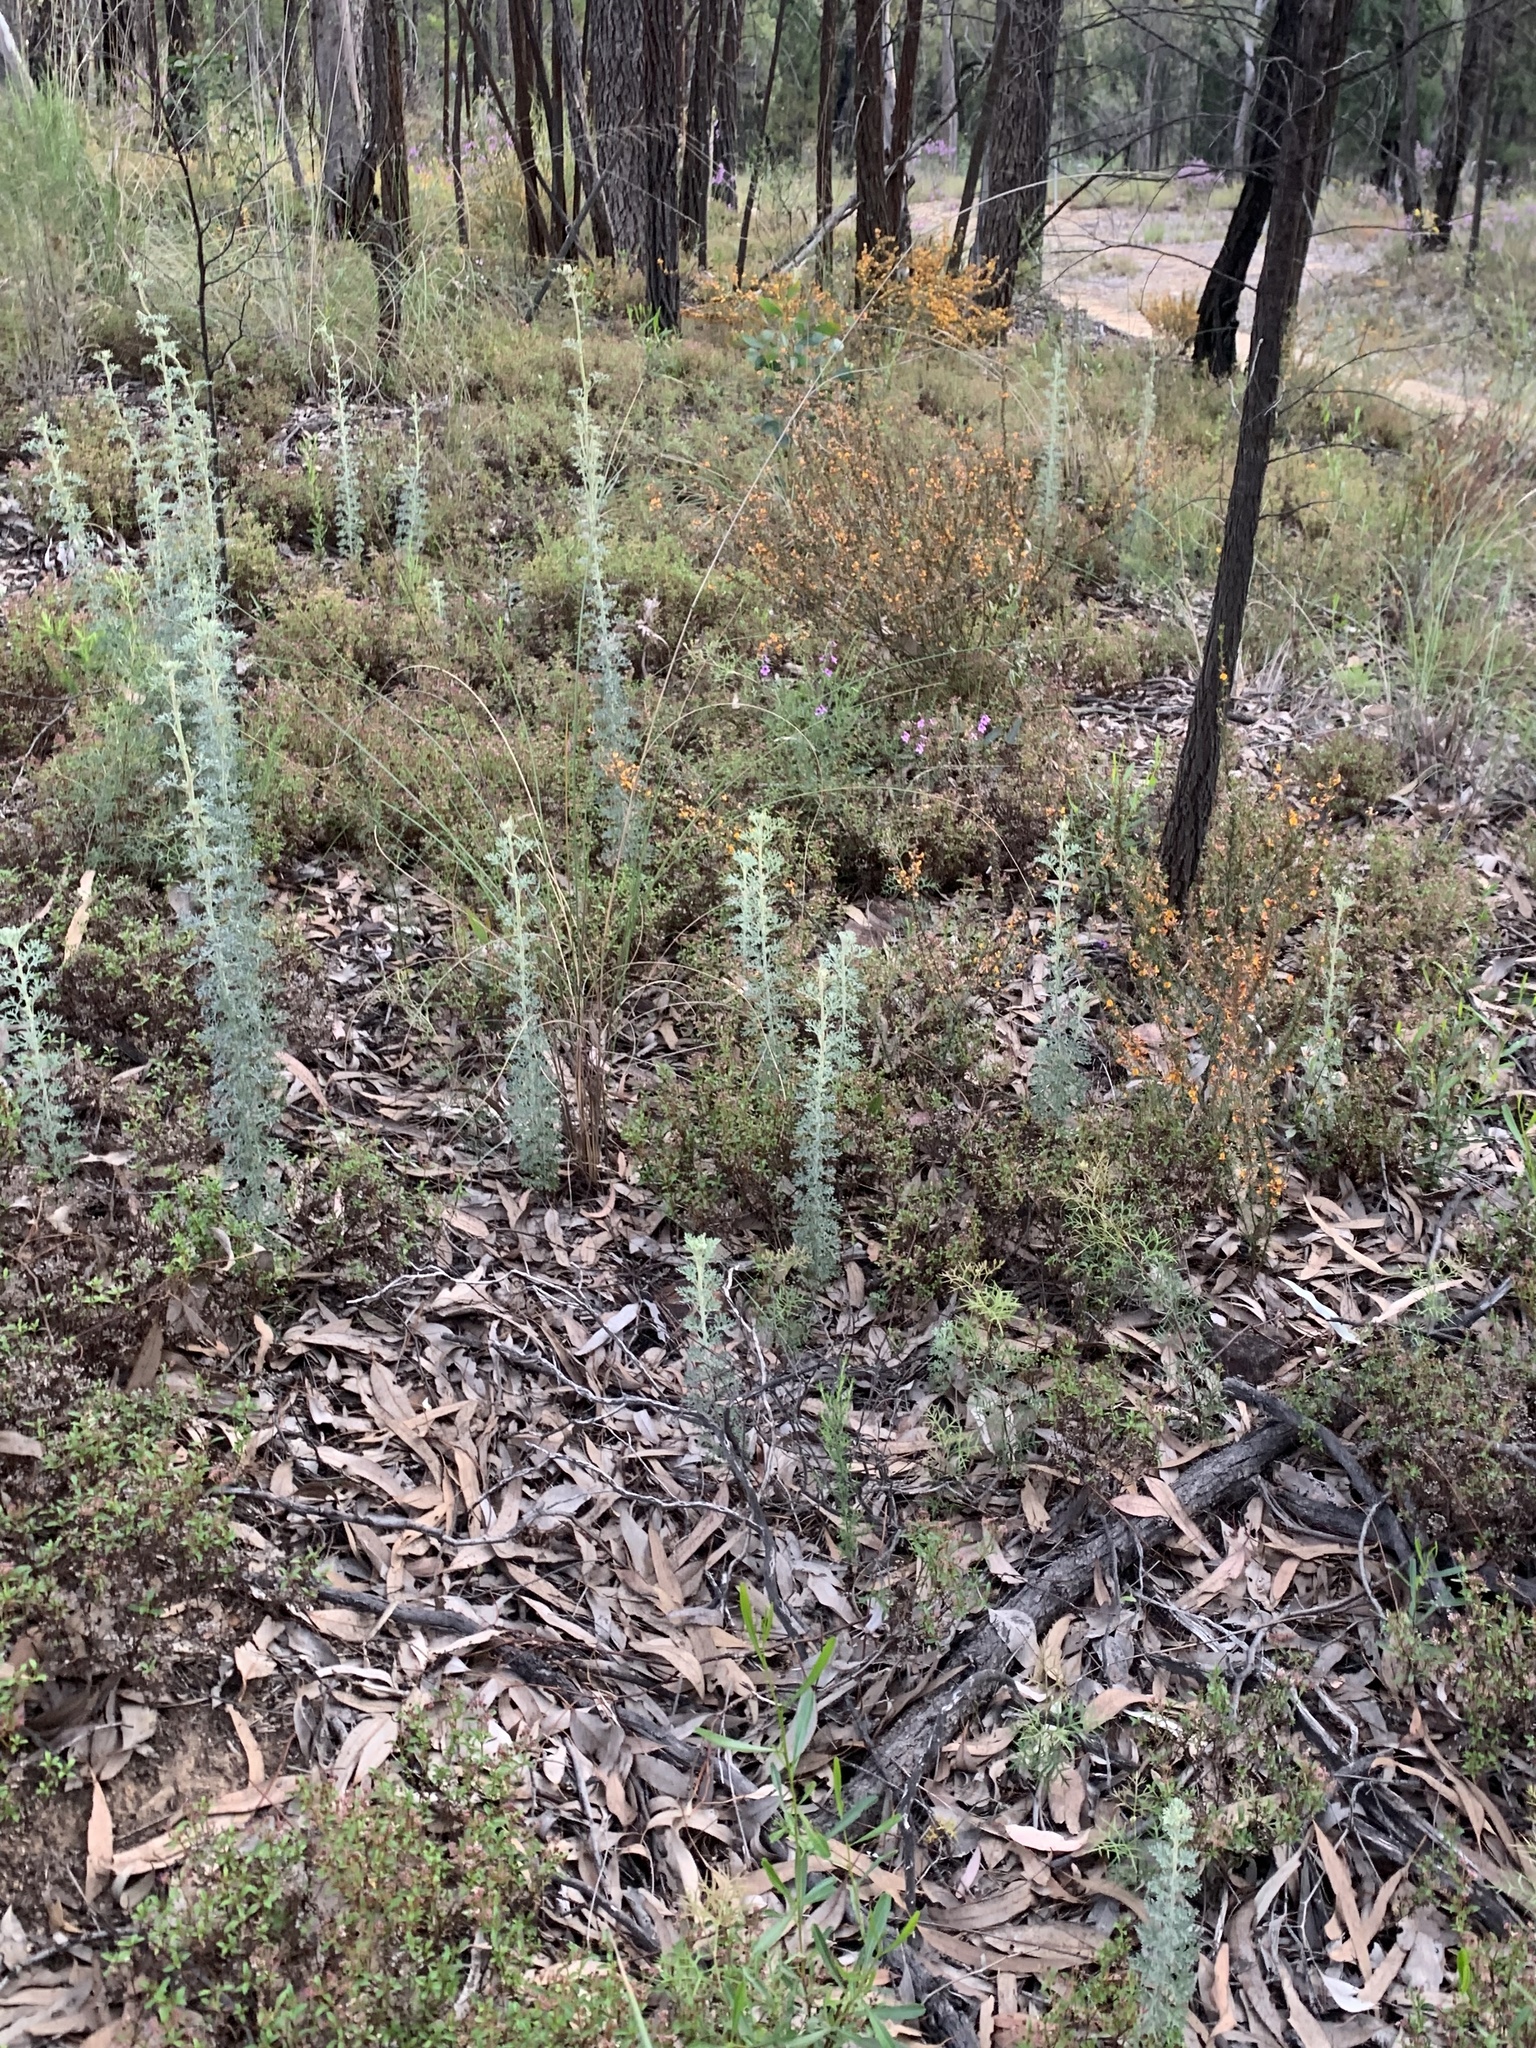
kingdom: Plantae
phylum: Tracheophyta
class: Magnoliopsida
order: Apiales
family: Apiaceae
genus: Actinotus
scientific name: Actinotus helianthi
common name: Flannel-flower
